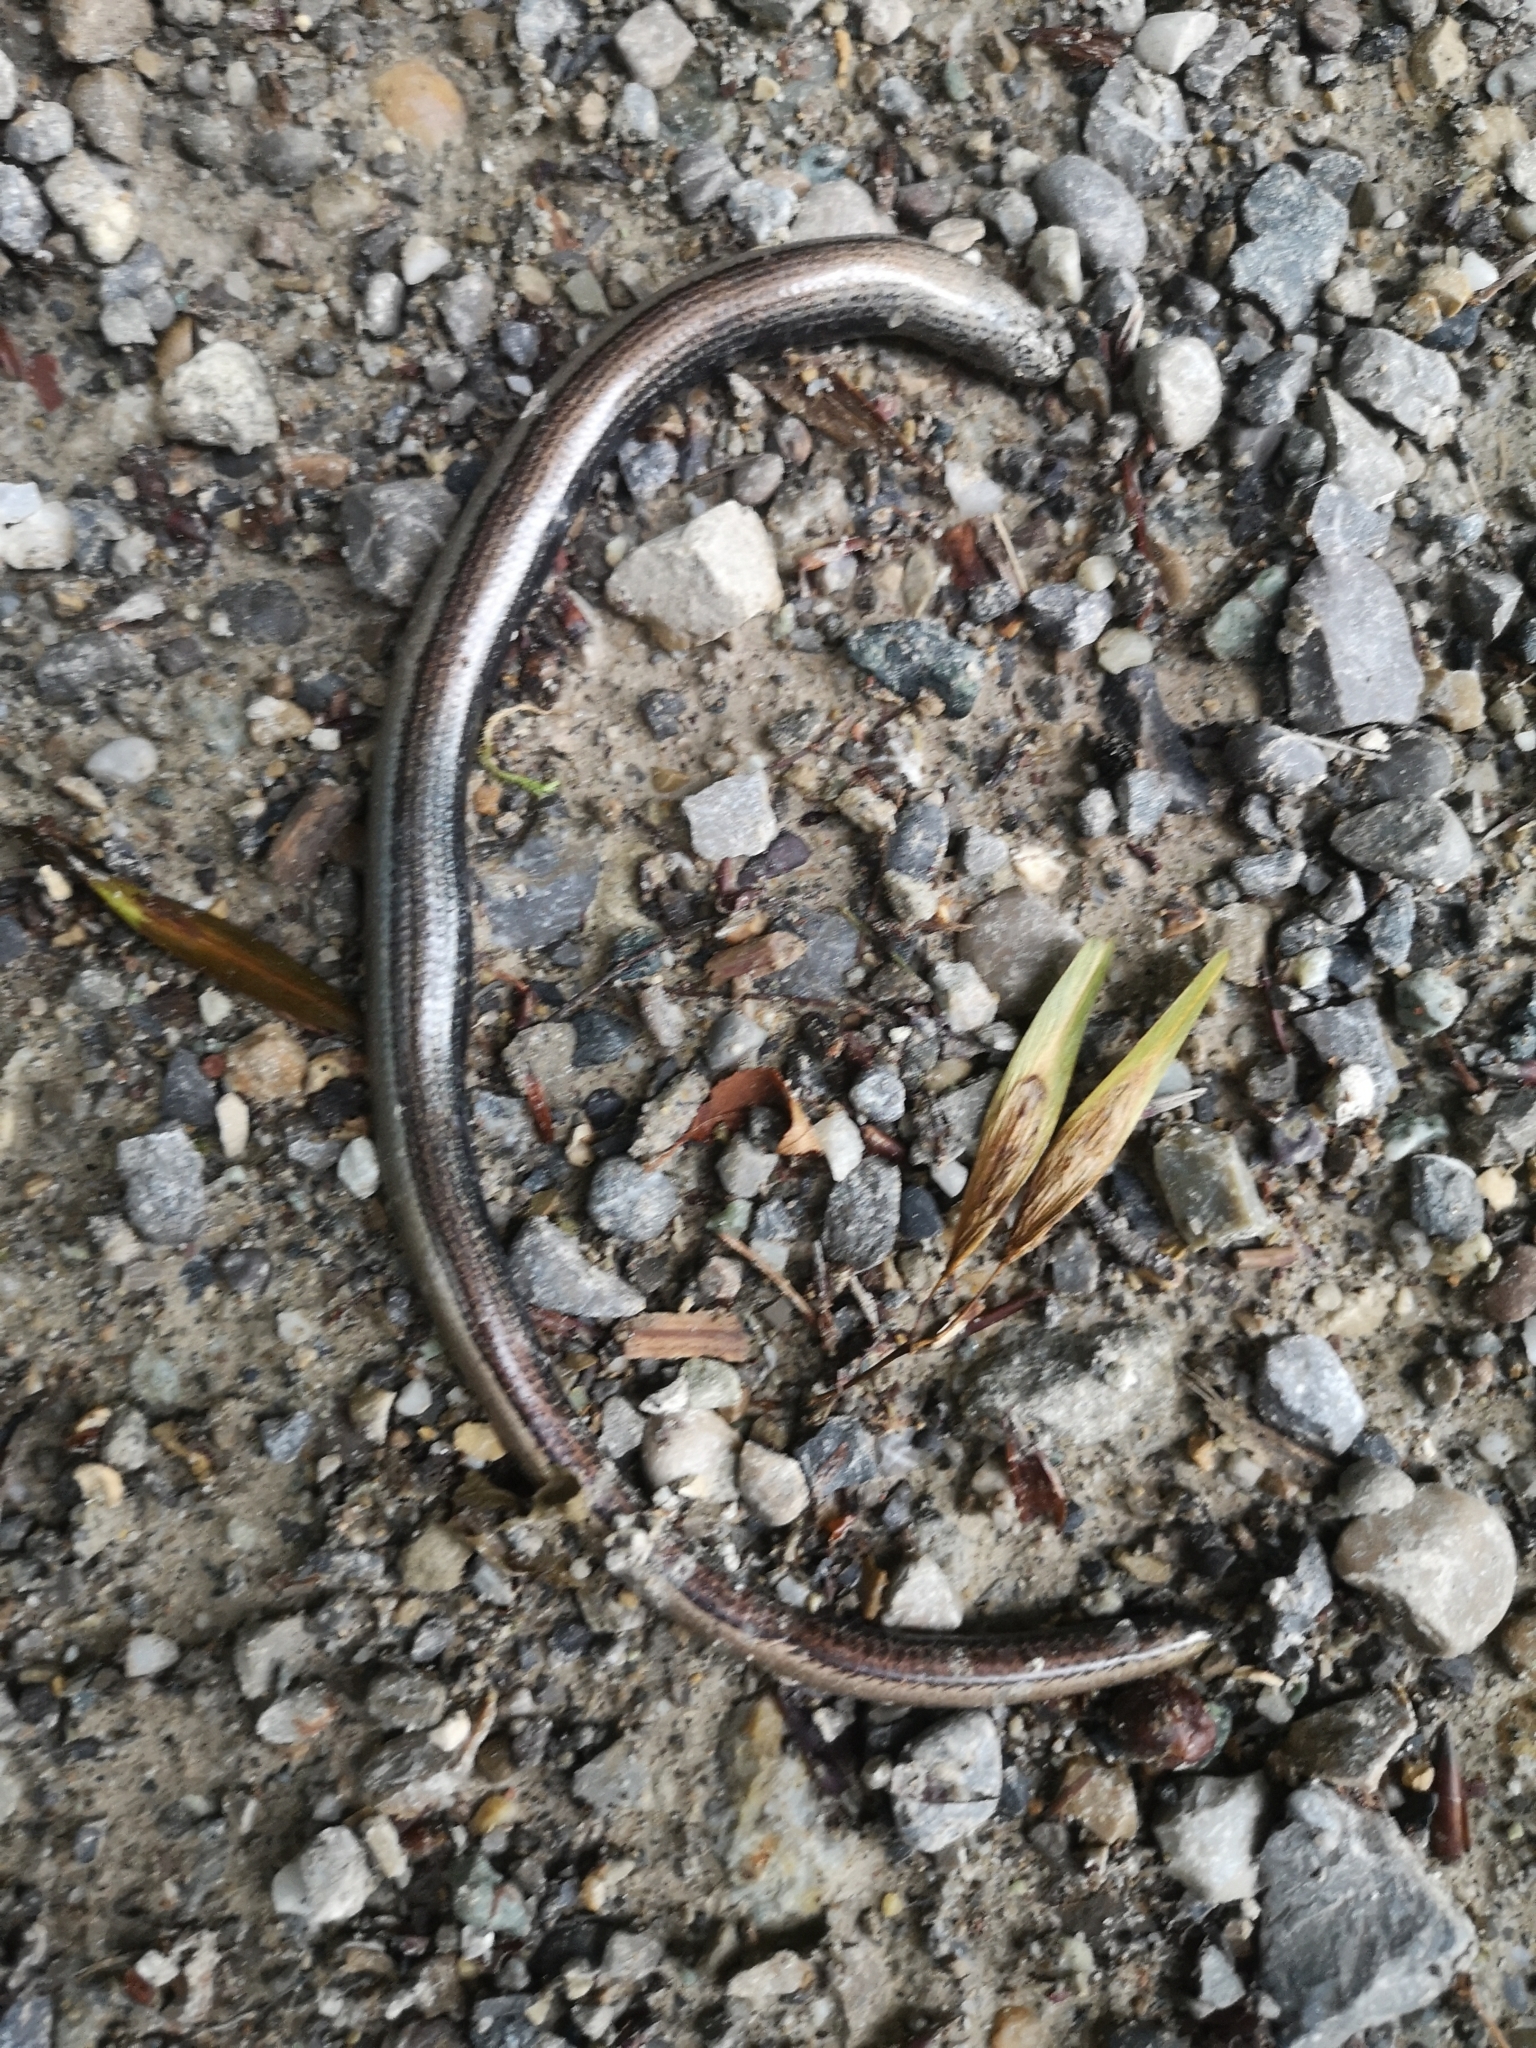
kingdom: Animalia
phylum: Chordata
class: Squamata
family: Anguidae
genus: Anguis
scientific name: Anguis fragilis
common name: Slow worm
